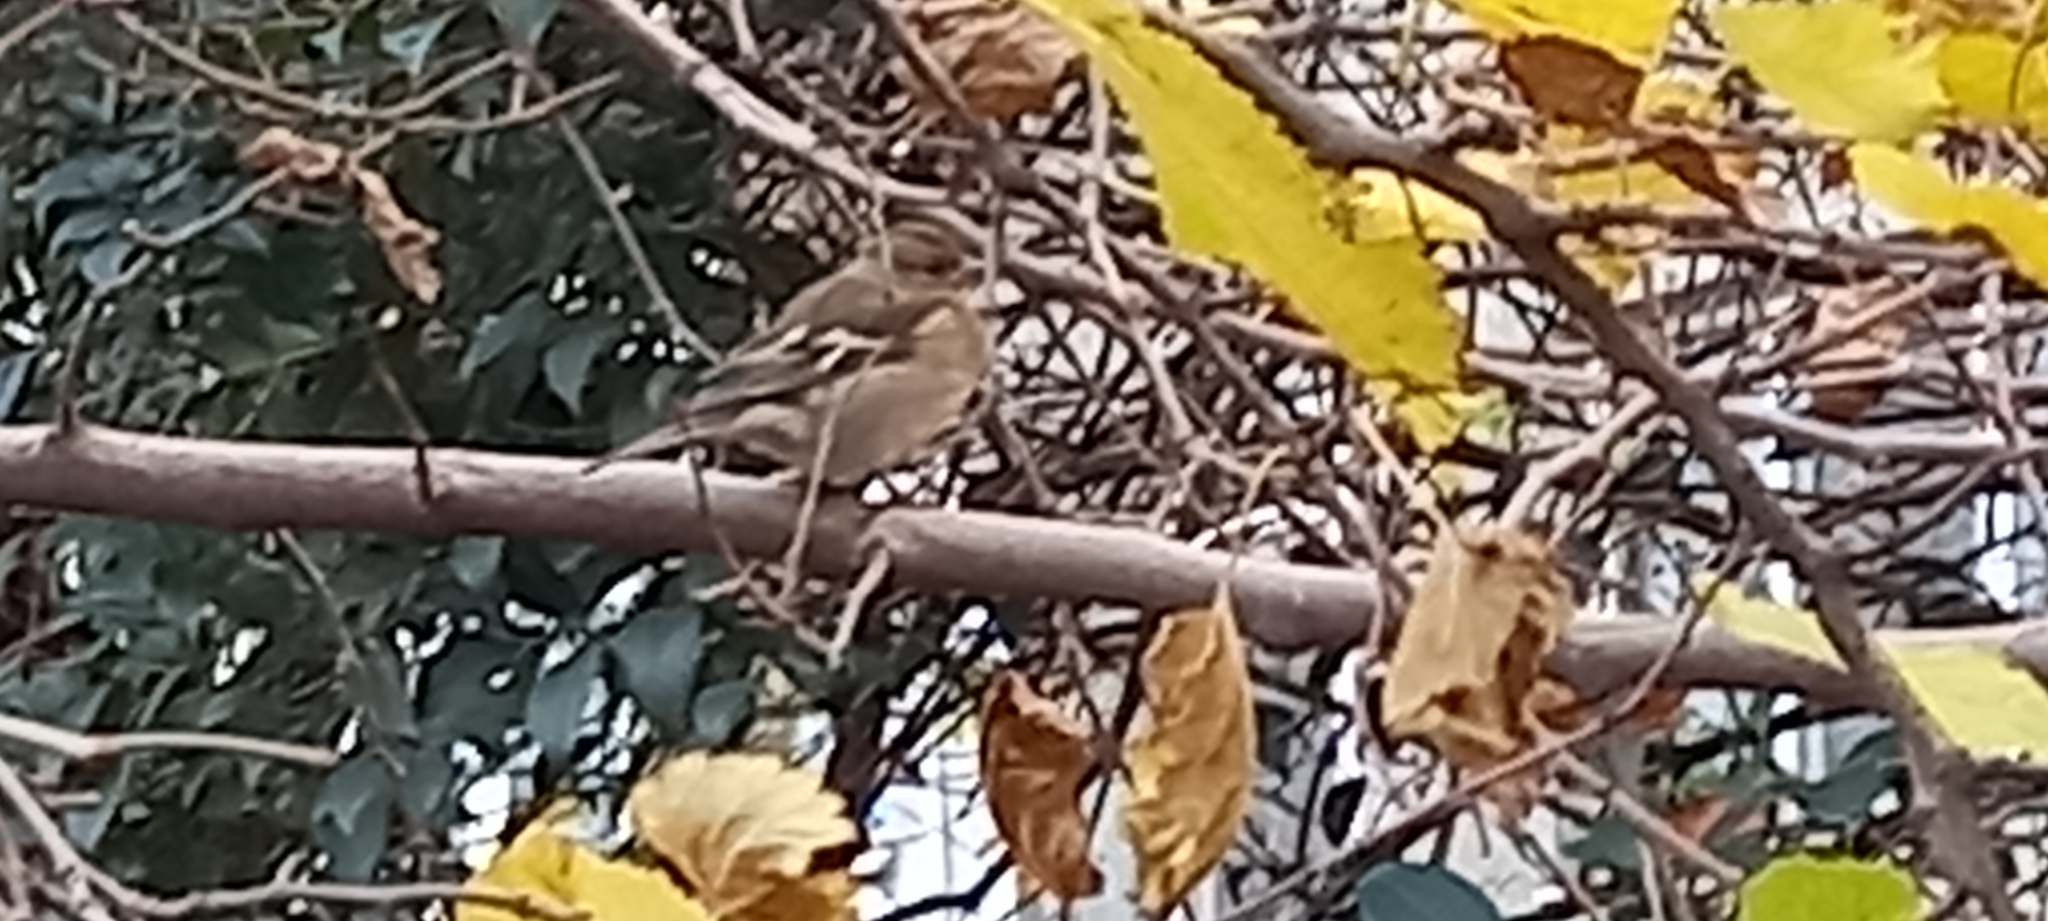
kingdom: Animalia
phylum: Chordata
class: Aves
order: Passeriformes
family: Fringillidae
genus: Fringilla
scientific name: Fringilla coelebs
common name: Common chaffinch
